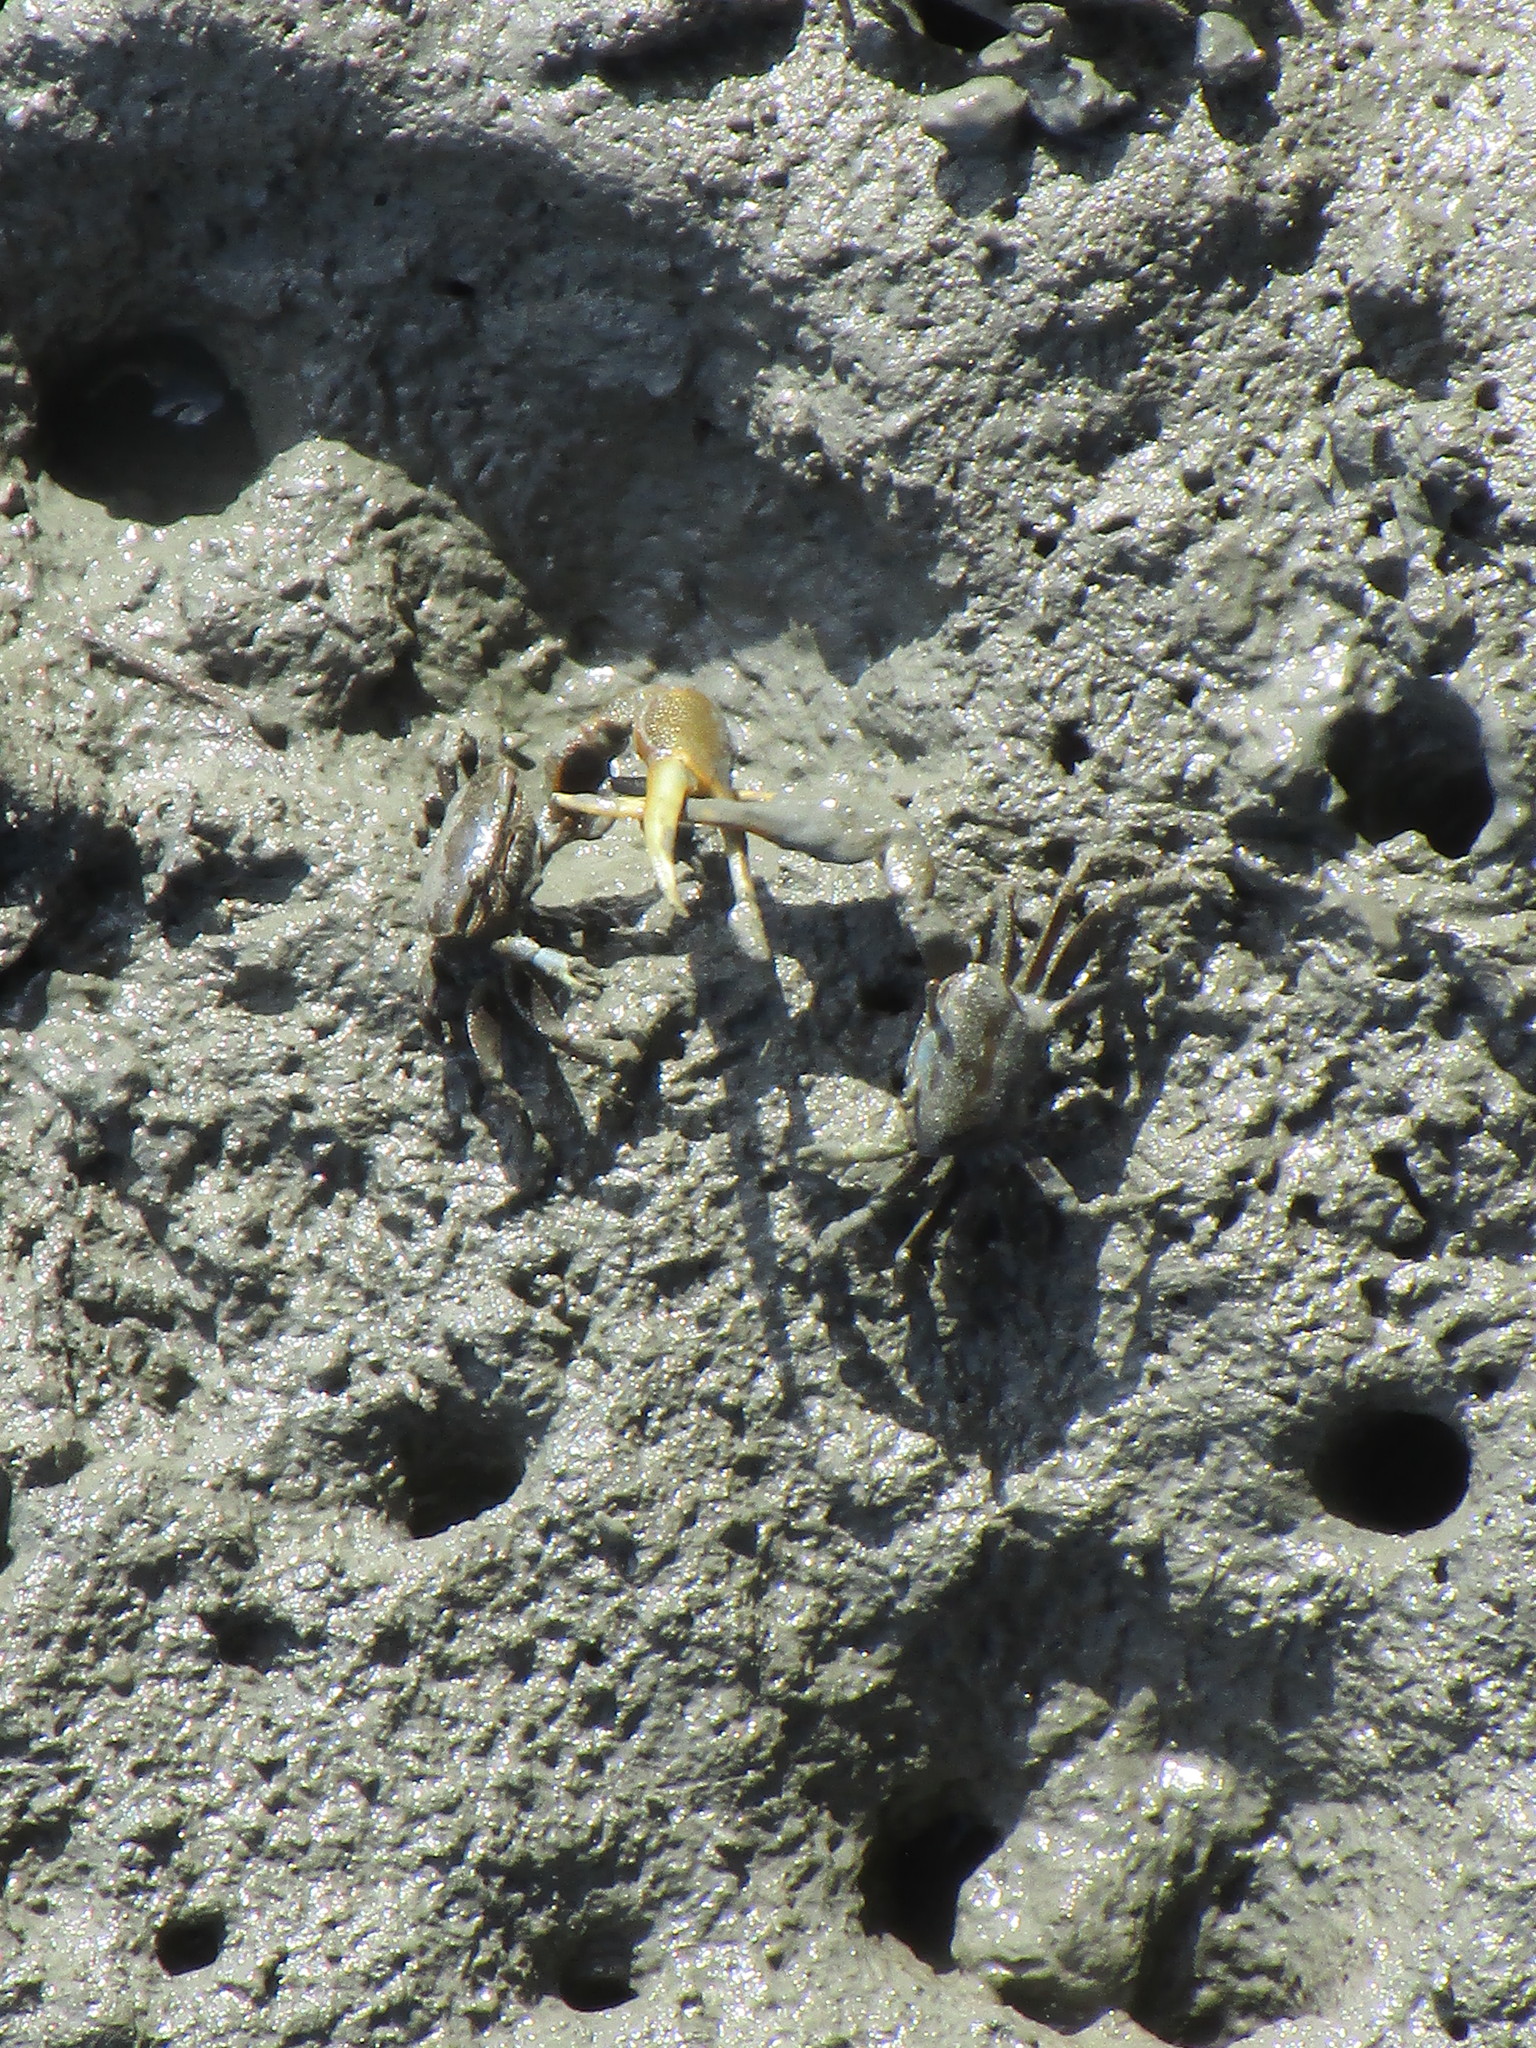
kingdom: Animalia
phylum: Arthropoda
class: Malacostraca
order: Decapoda
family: Ocypodidae
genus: Minuca
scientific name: Minuca pugnax
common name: Mud fiddler crab
